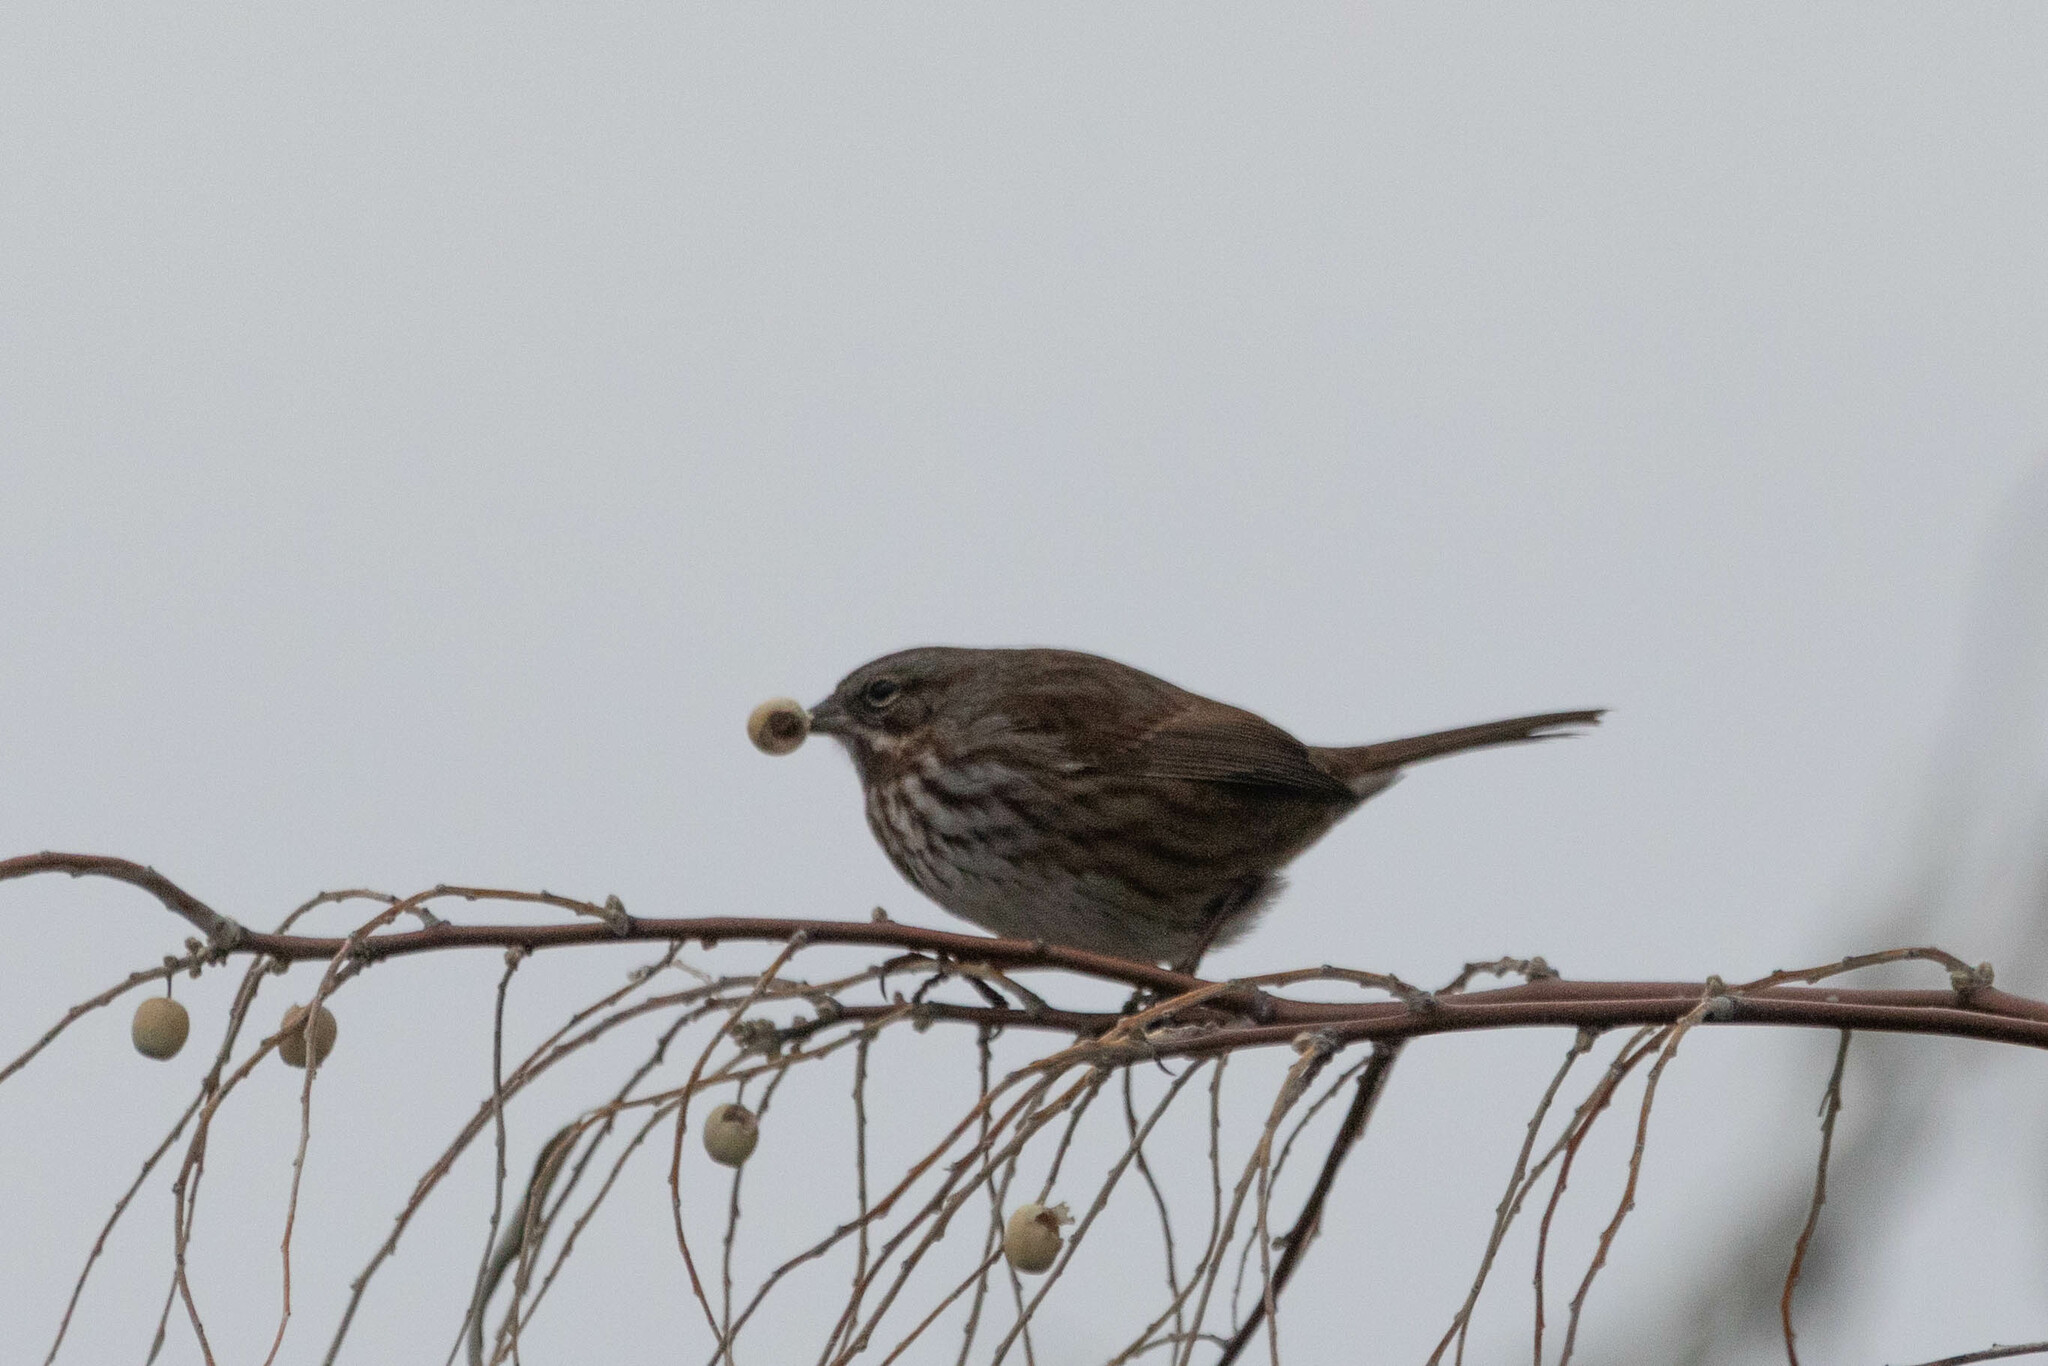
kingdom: Animalia
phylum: Chordata
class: Aves
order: Passeriformes
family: Passerellidae
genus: Melospiza
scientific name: Melospiza melodia
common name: Song sparrow
